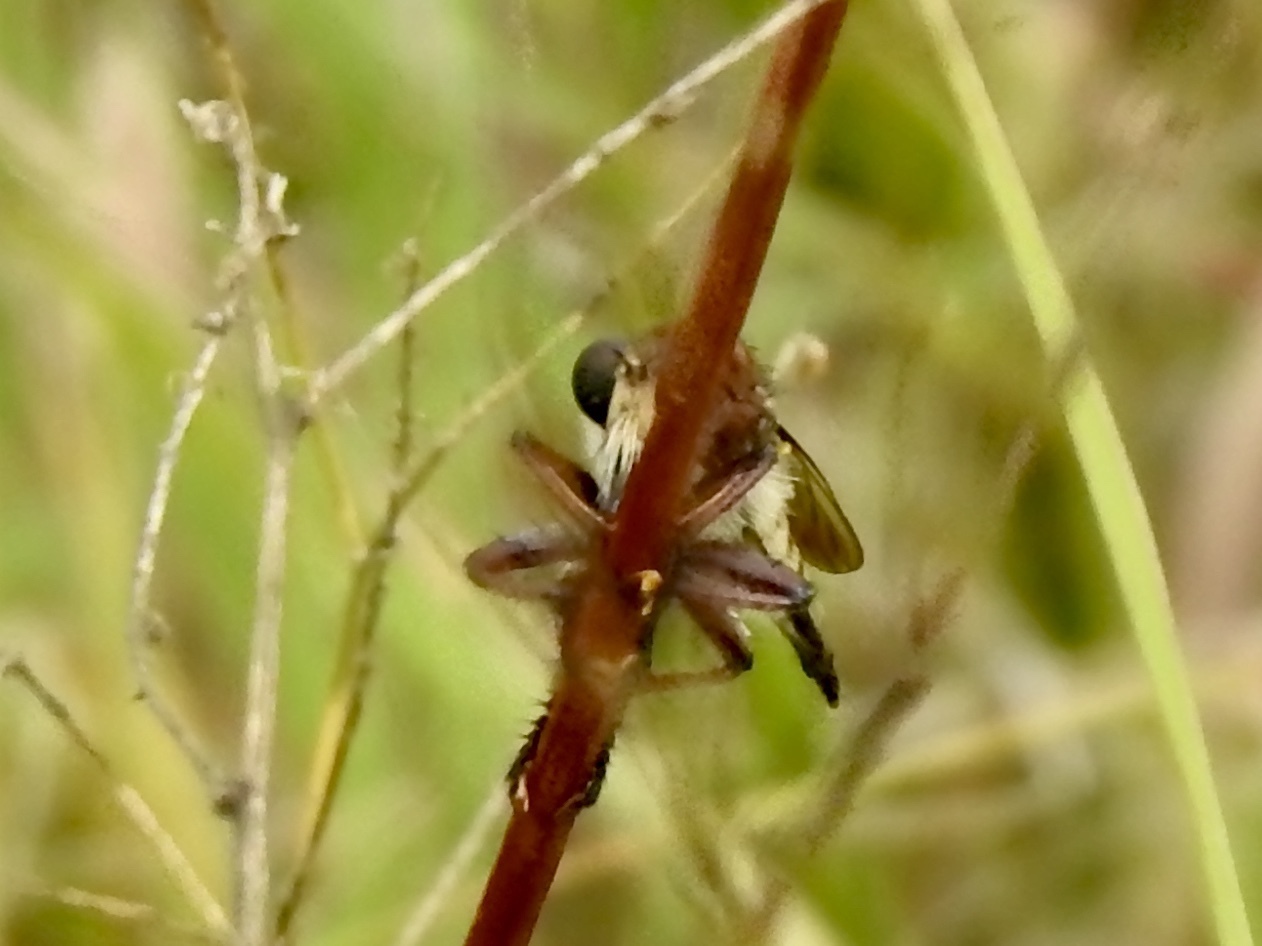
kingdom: Animalia
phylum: Arthropoda
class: Insecta
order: Diptera
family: Asilidae
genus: Promachus
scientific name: Promachus hinei
